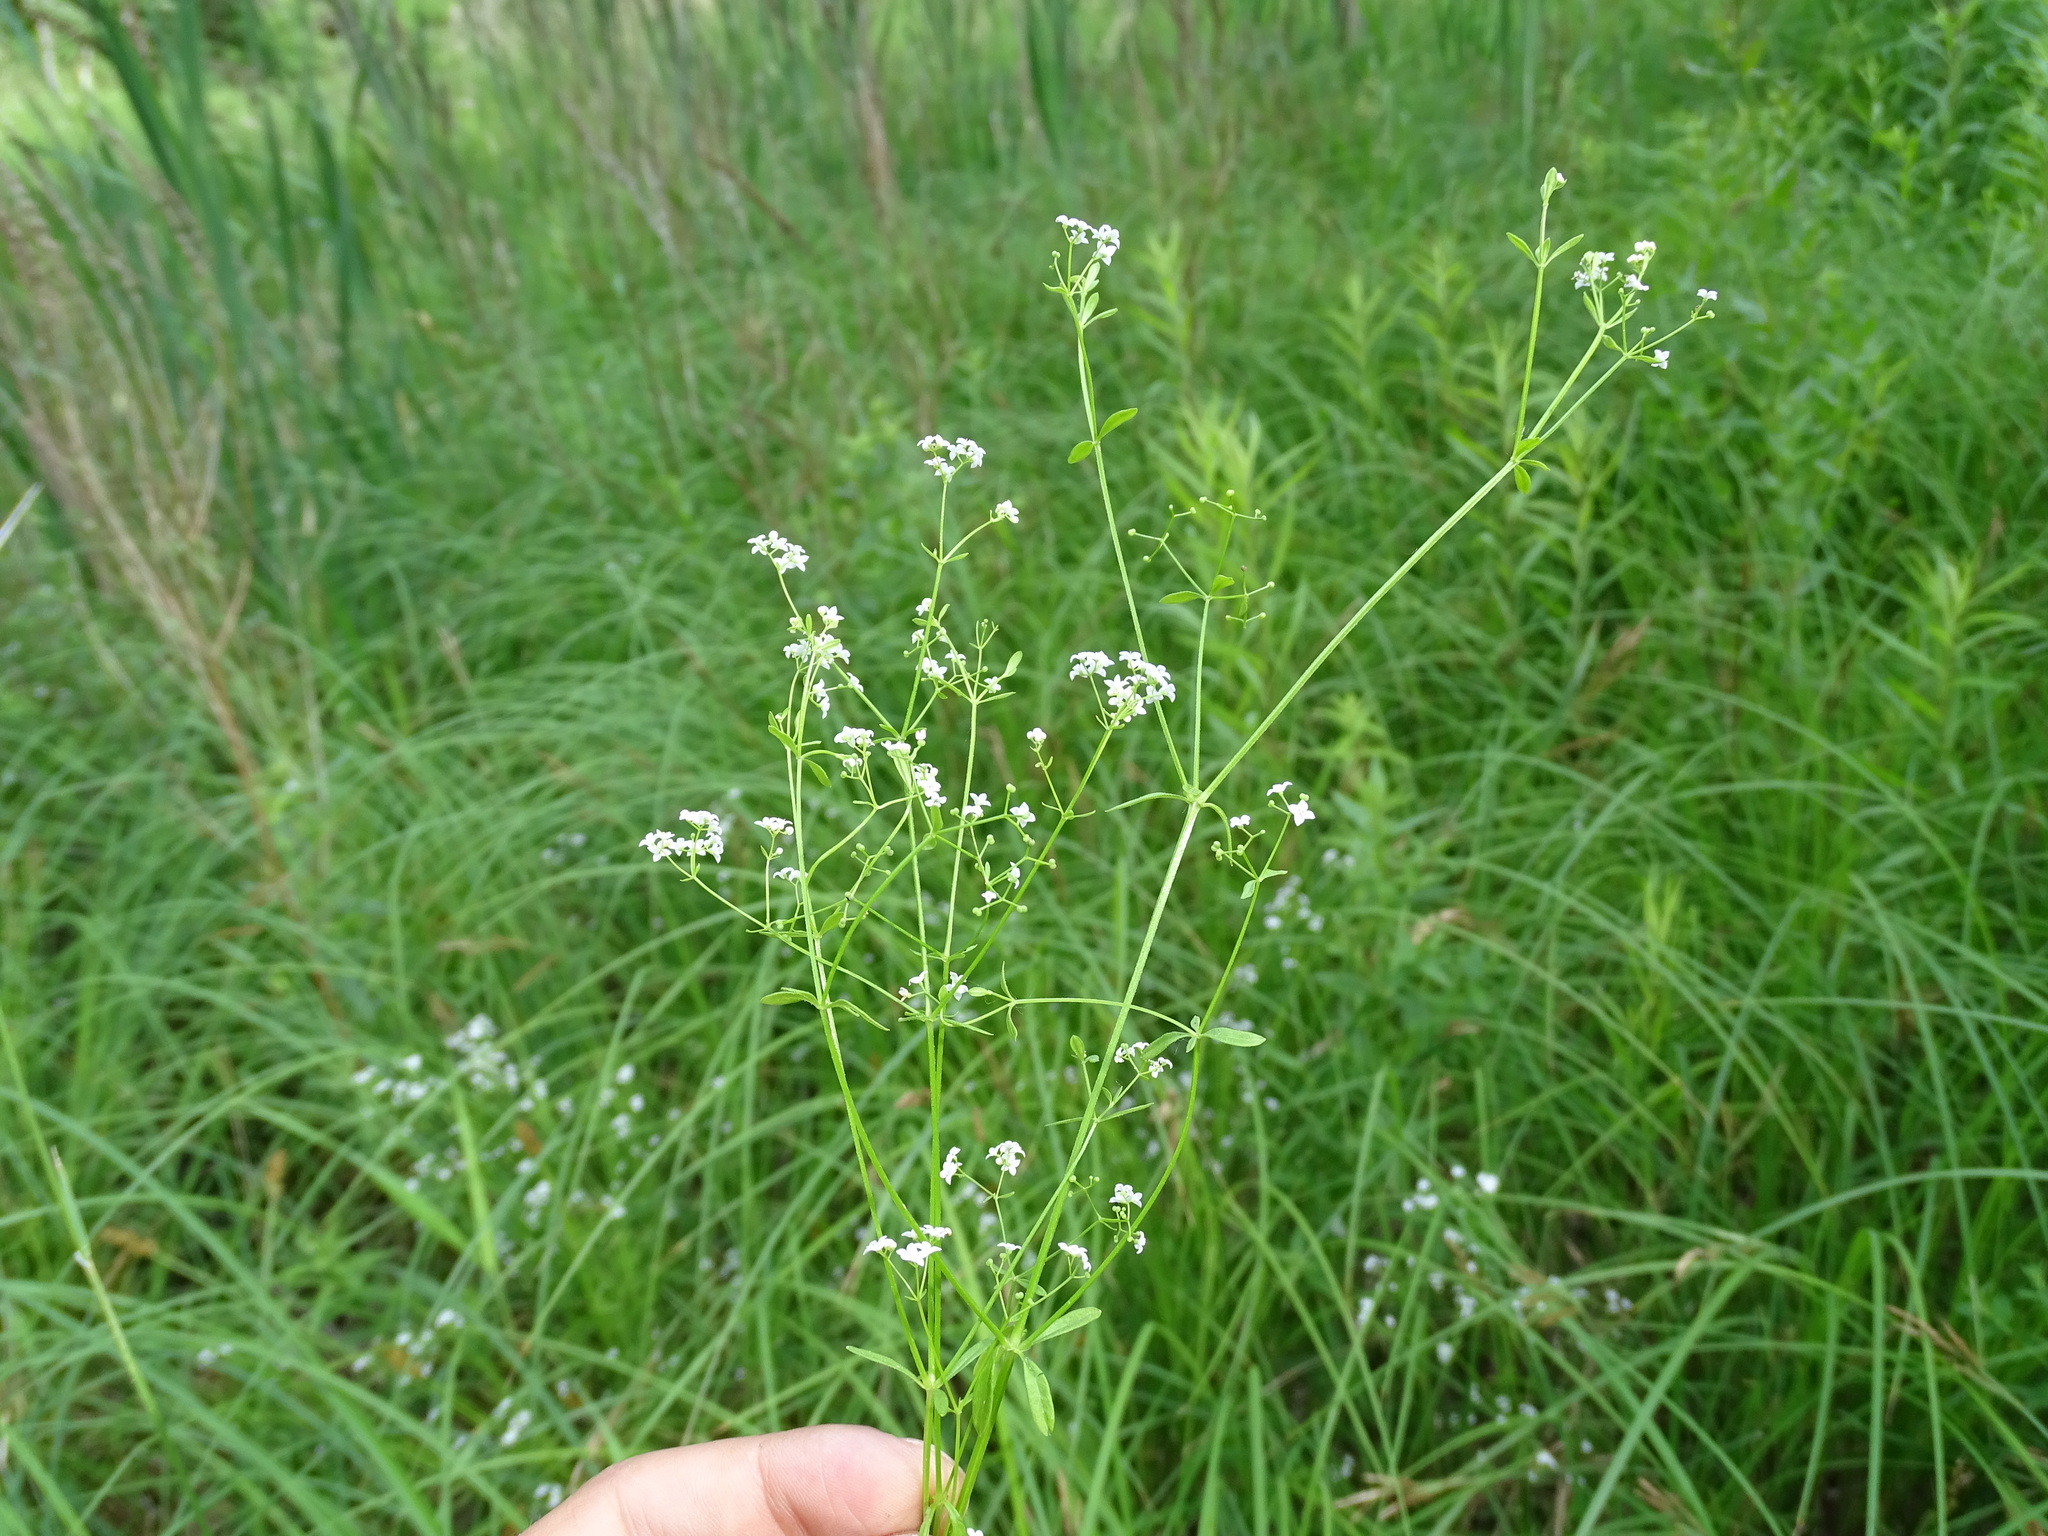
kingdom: Plantae
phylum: Tracheophyta
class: Magnoliopsida
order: Gentianales
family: Rubiaceae
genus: Galium
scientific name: Galium palustre
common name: Common marsh-bedstraw
